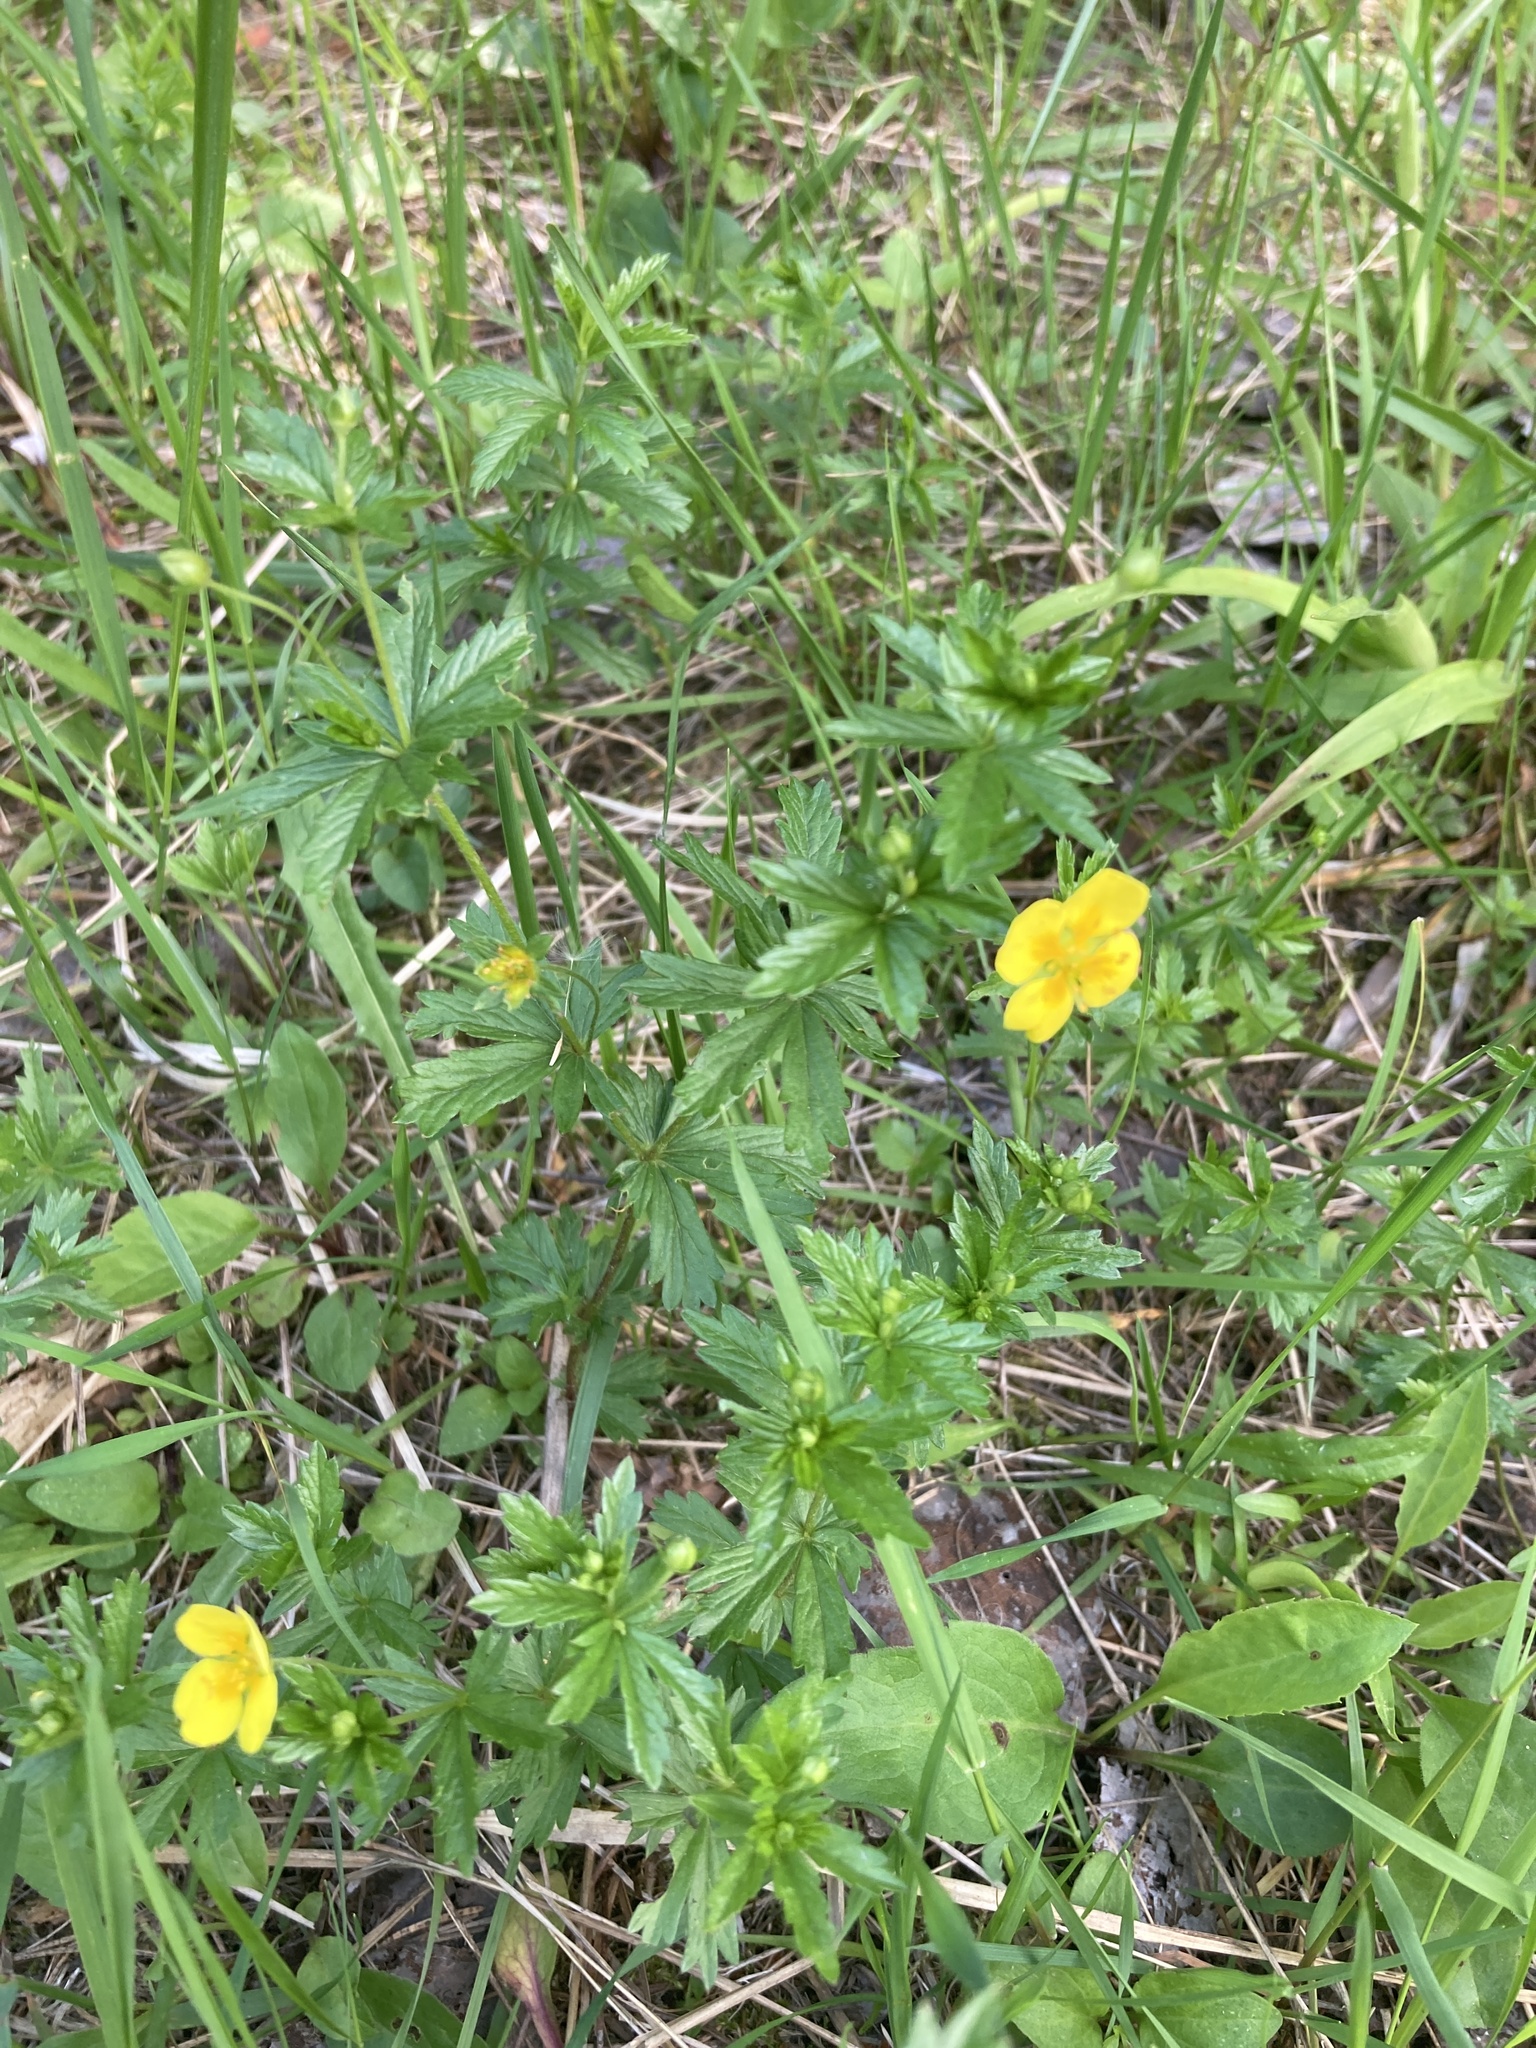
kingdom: Plantae
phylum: Tracheophyta
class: Magnoliopsida
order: Rosales
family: Rosaceae
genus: Potentilla
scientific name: Potentilla erecta
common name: Tormentil
